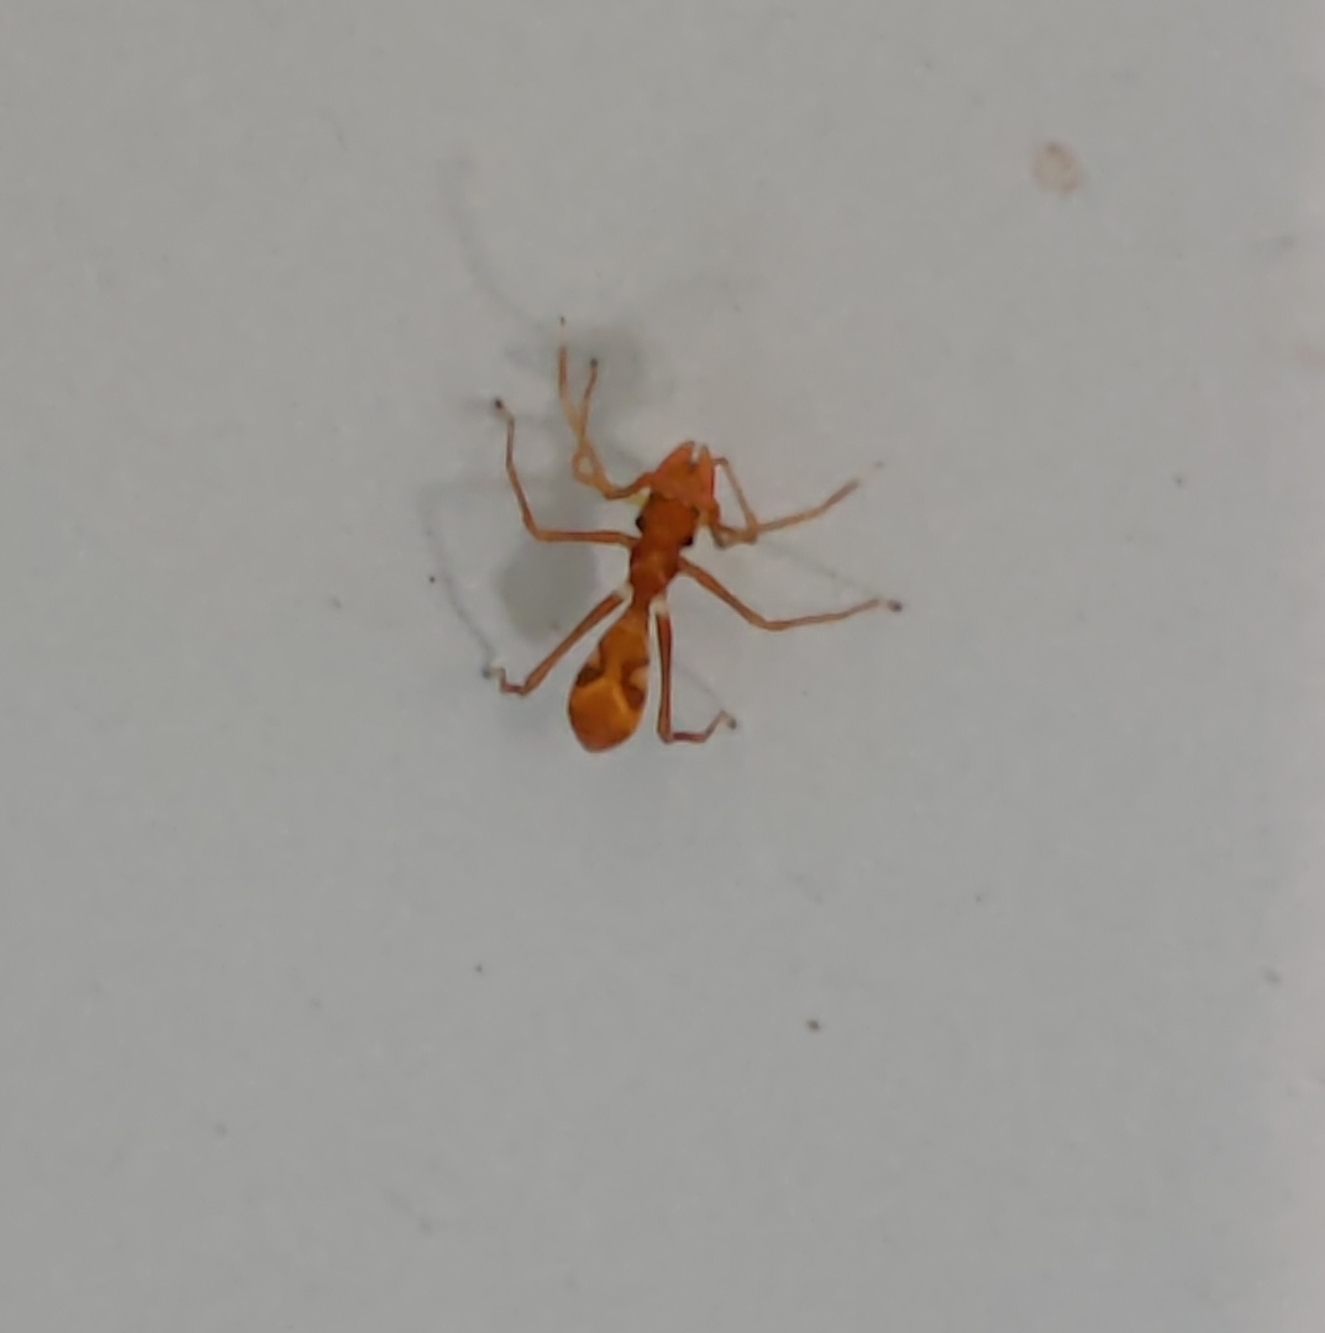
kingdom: Animalia
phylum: Arthropoda
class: Arachnida
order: Araneae
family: Salticidae
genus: Myrmaplata
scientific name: Myrmaplata plataleoides
